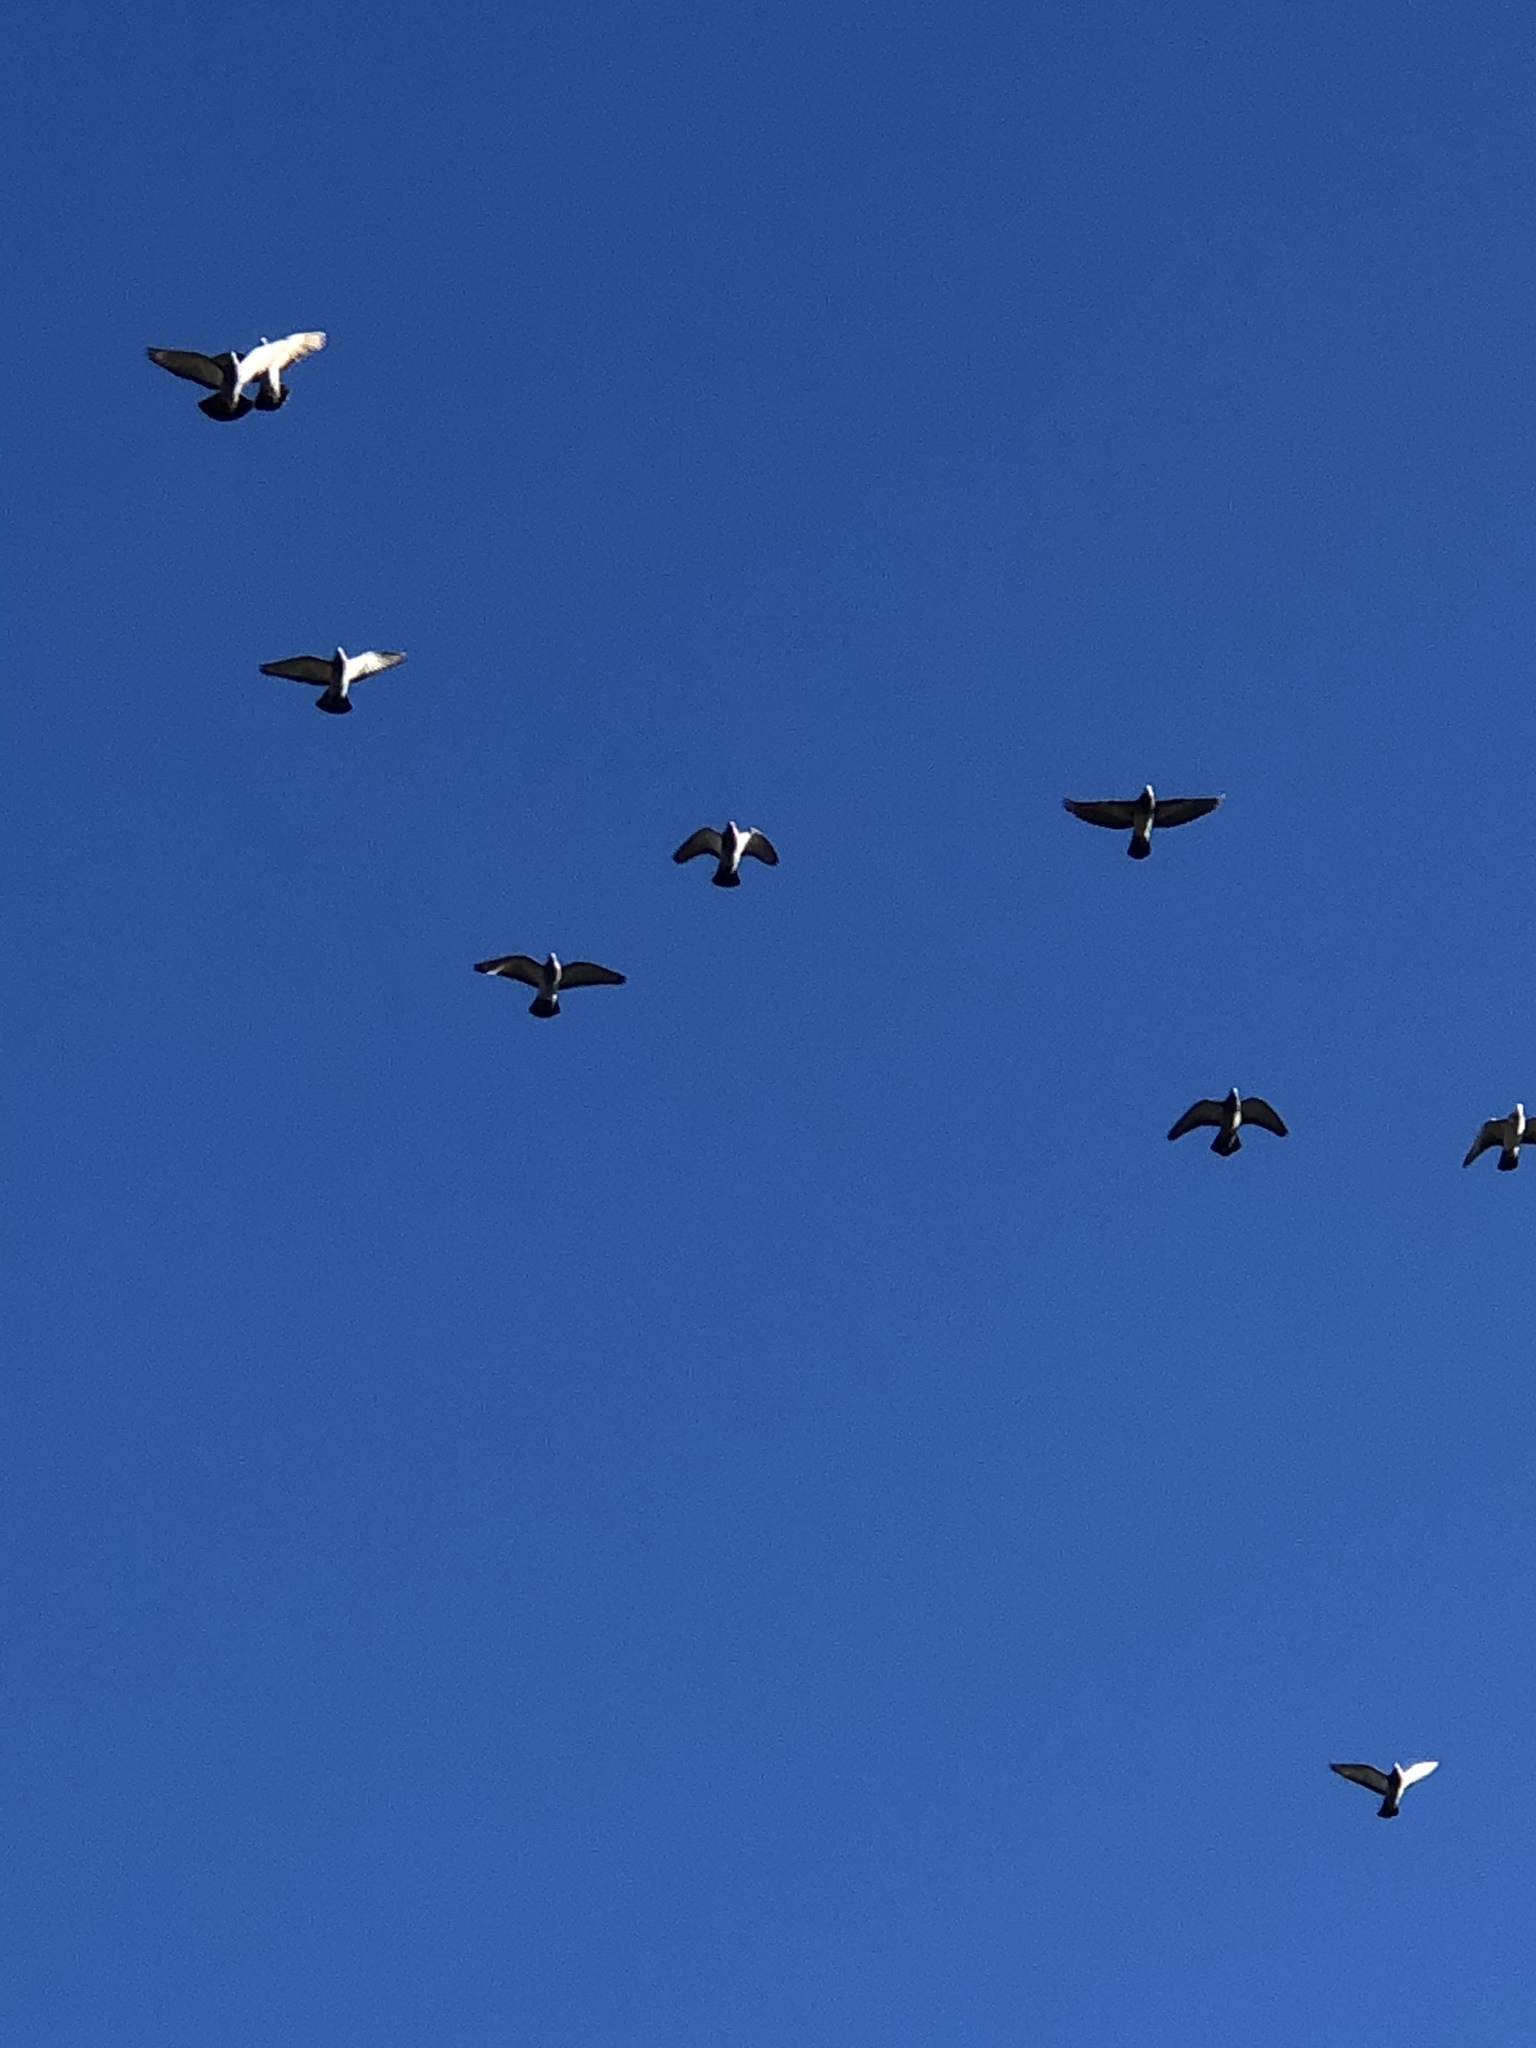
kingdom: Animalia
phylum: Chordata
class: Aves
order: Columbiformes
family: Columbidae
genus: Columba
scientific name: Columba livia
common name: Rock pigeon
